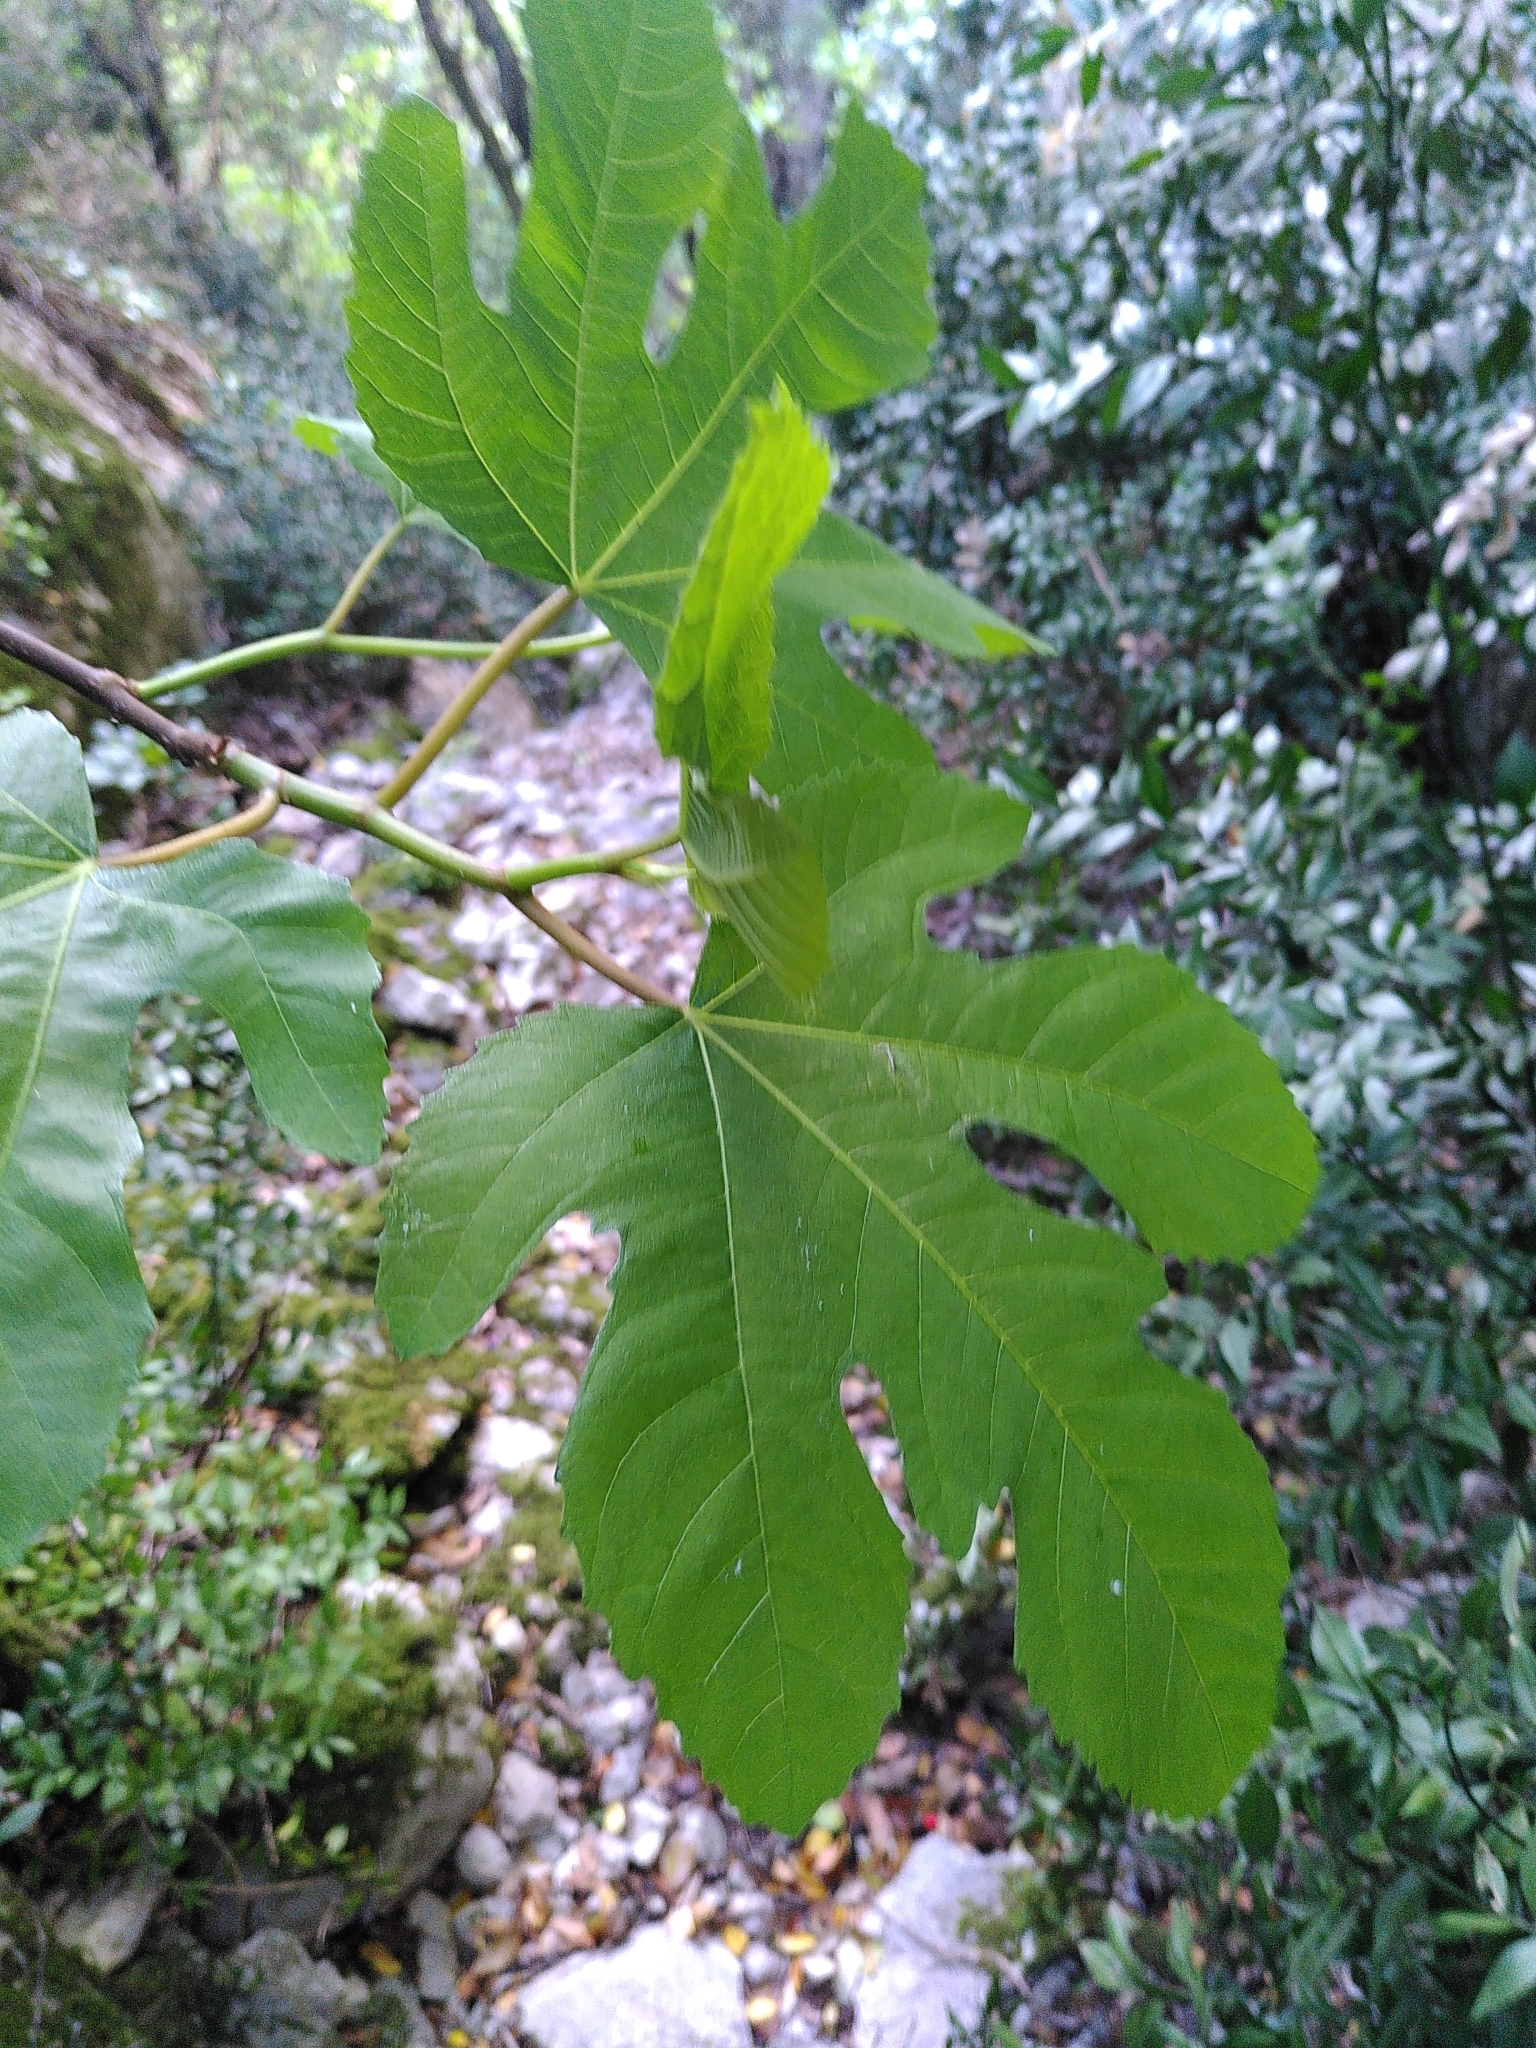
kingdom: Plantae
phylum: Tracheophyta
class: Magnoliopsida
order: Rosales
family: Moraceae
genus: Ficus
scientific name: Ficus carica
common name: Fig
